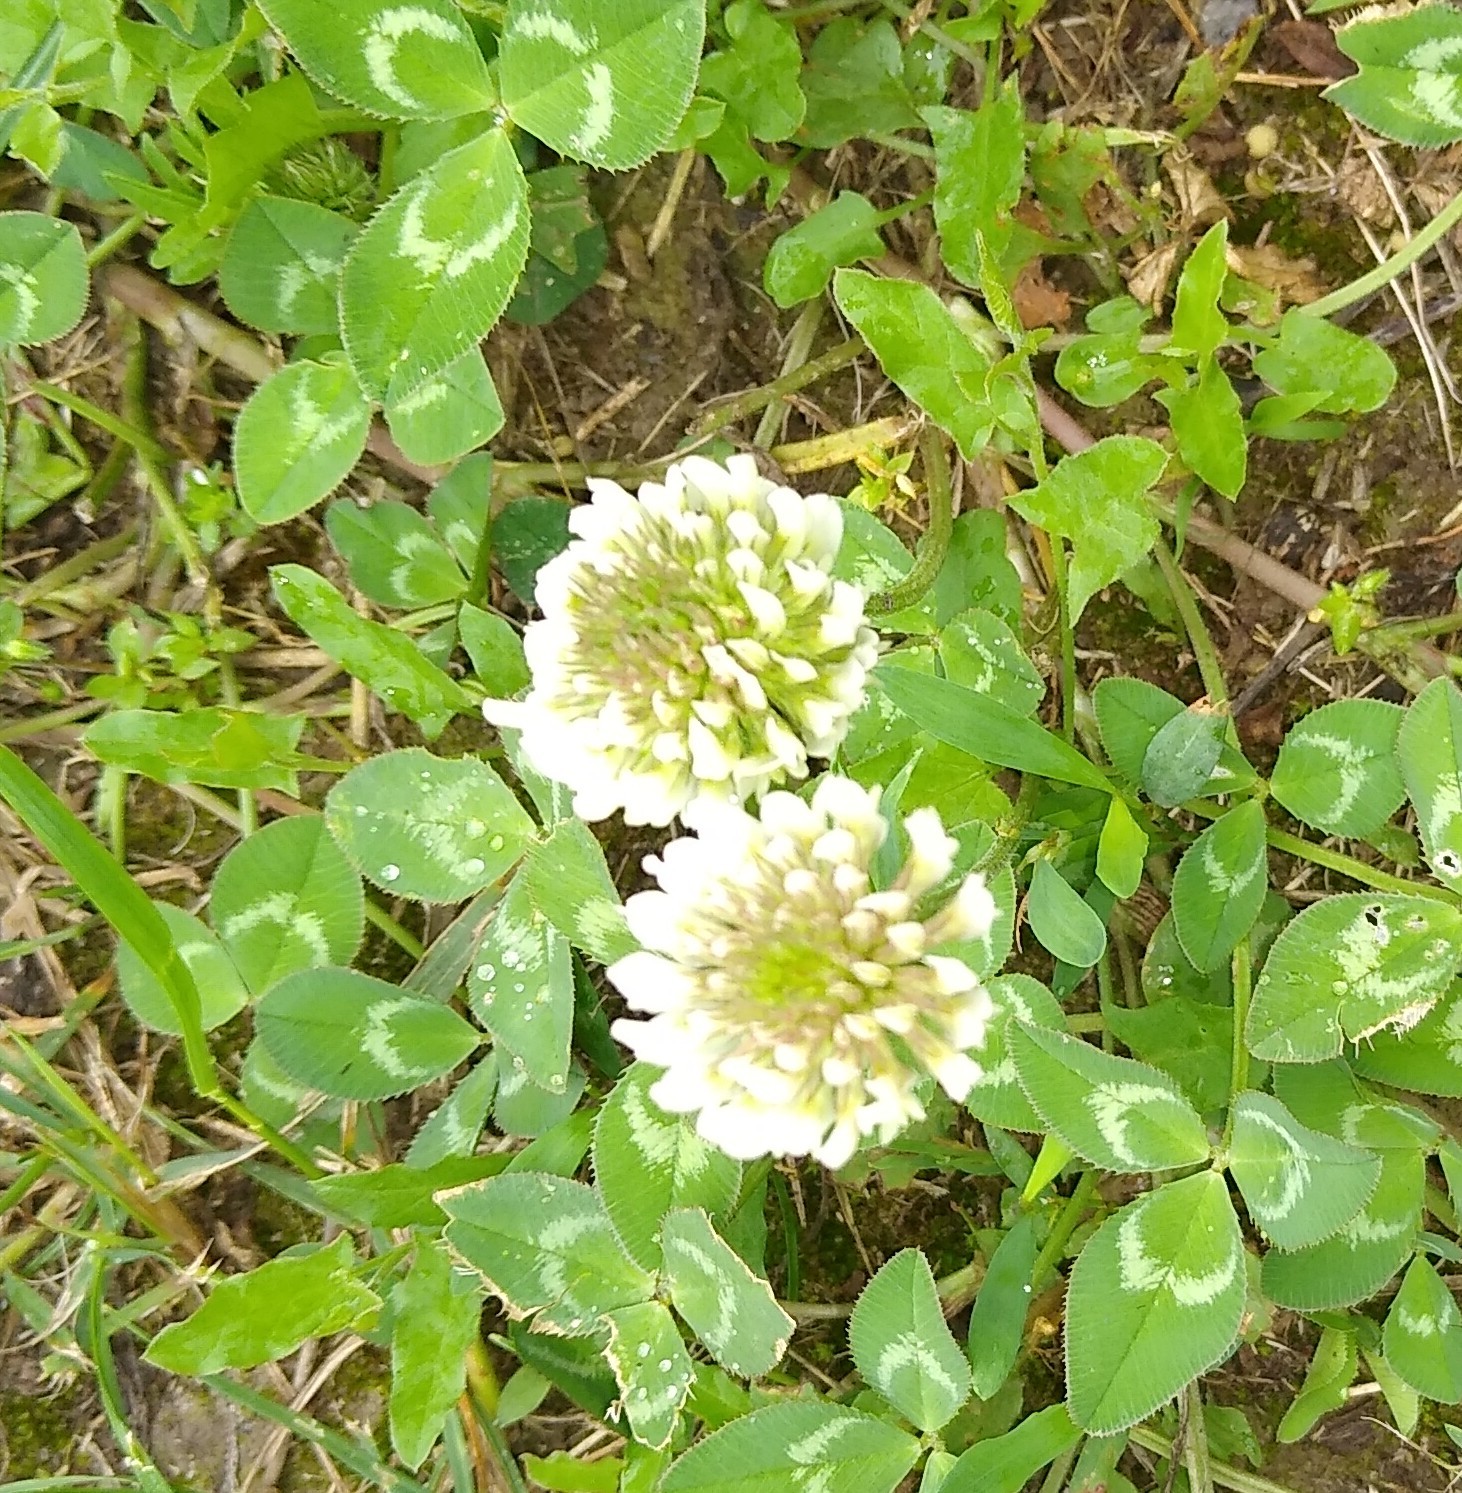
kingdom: Plantae
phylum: Tracheophyta
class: Magnoliopsida
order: Fabales
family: Fabaceae
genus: Trifolium
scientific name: Trifolium repens
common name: White clover
